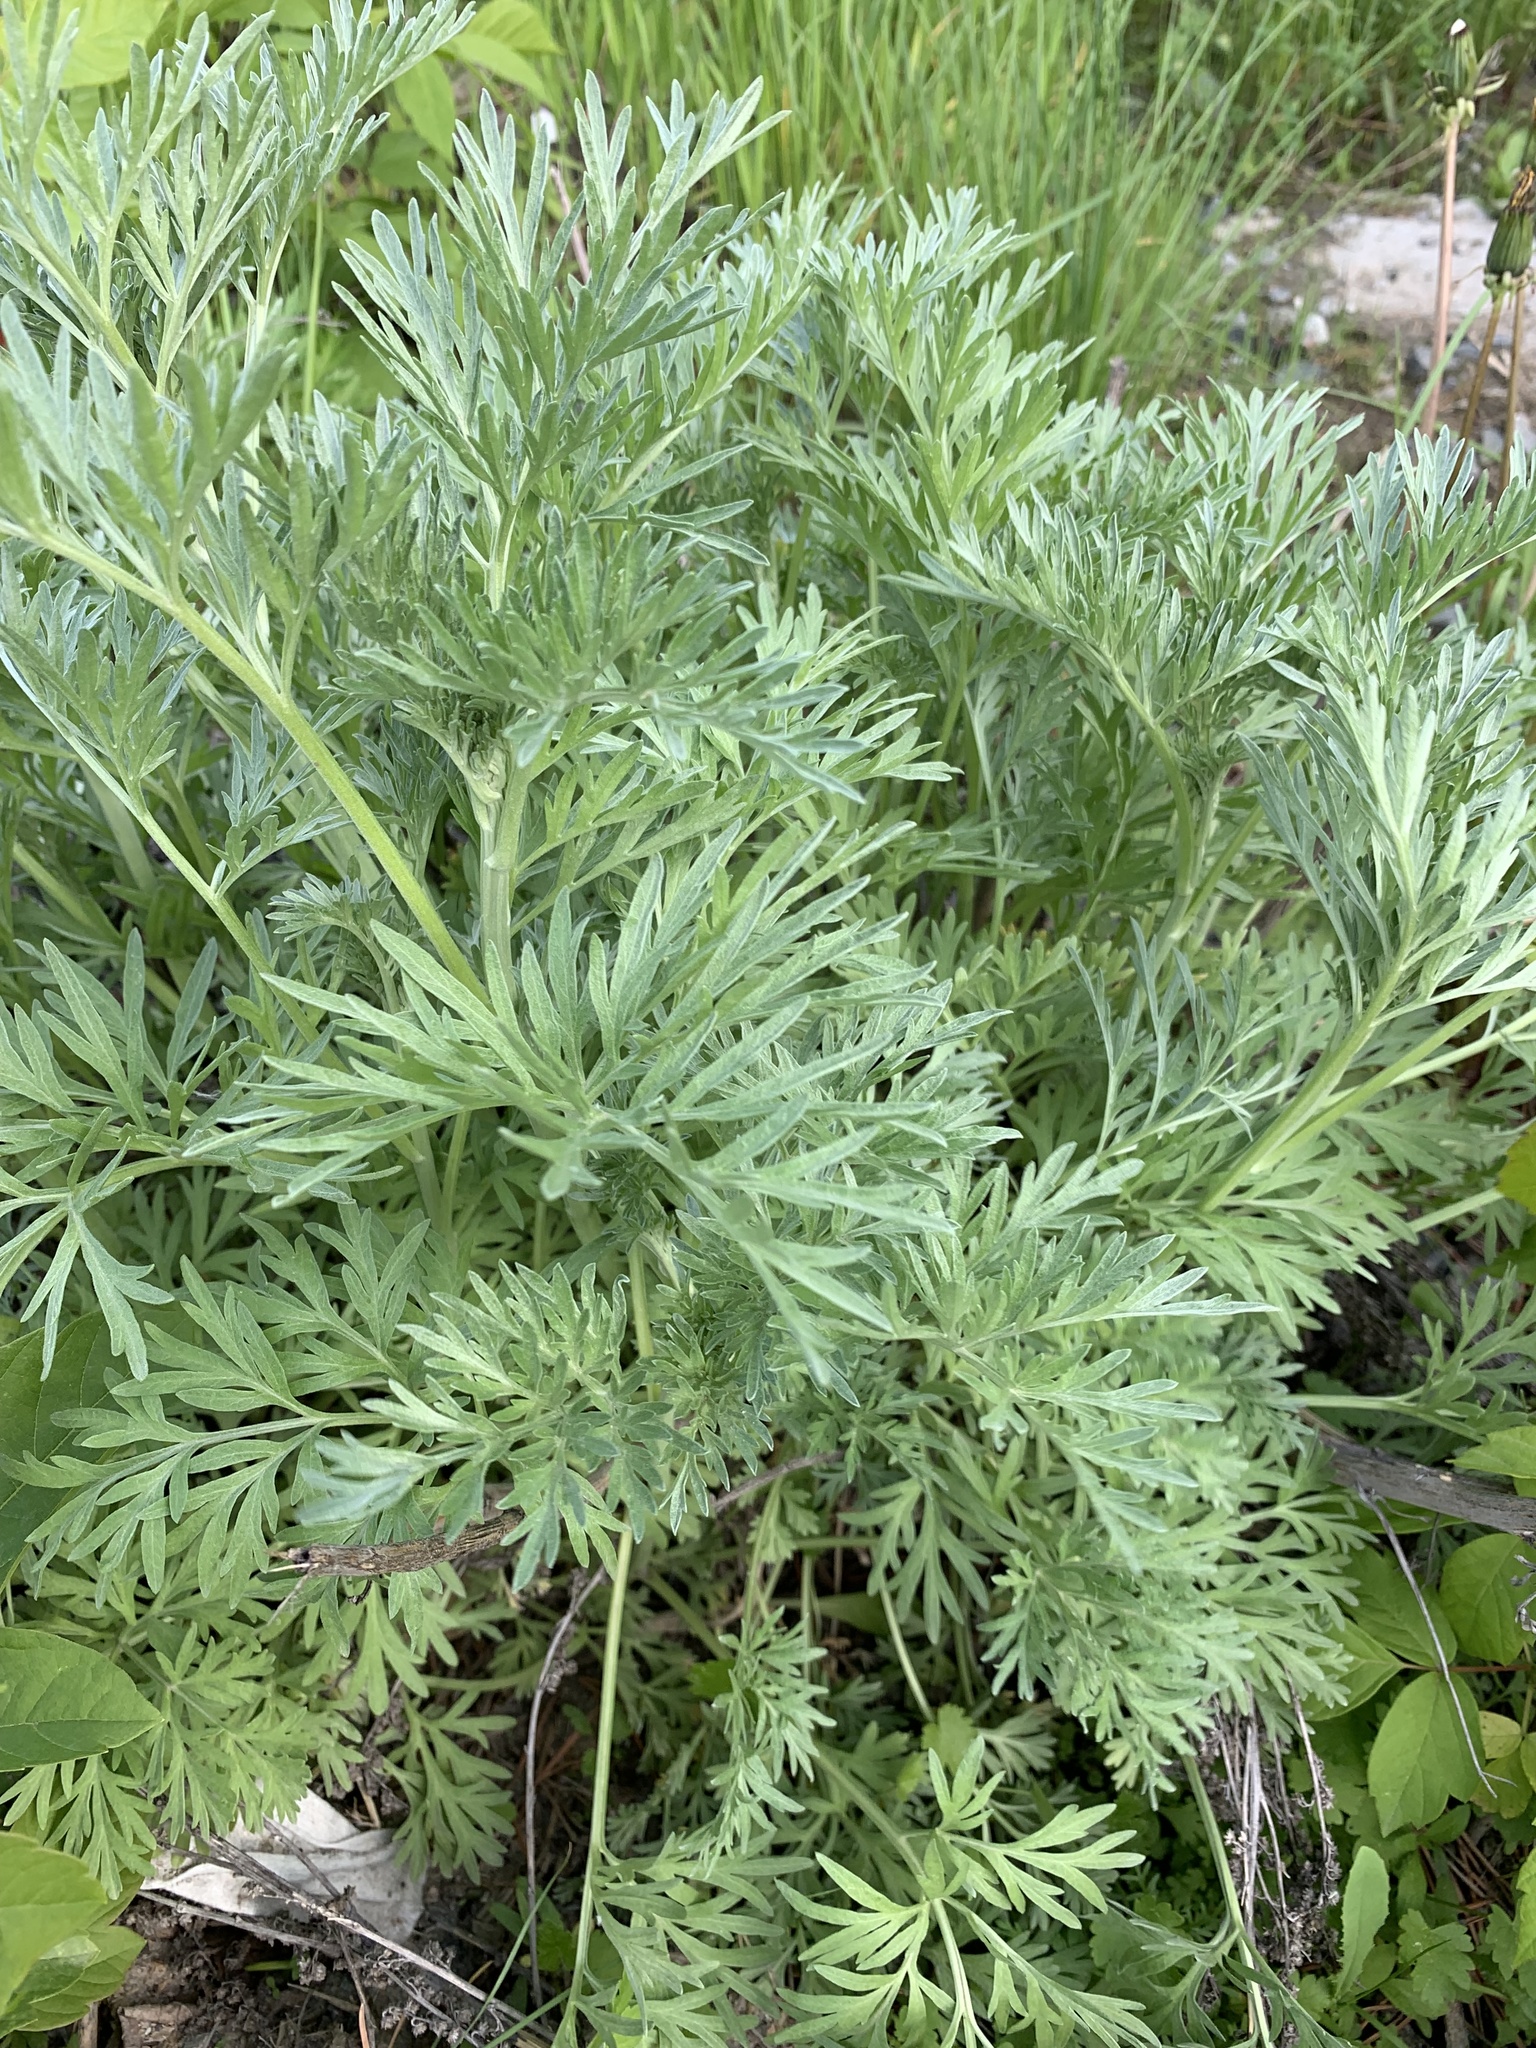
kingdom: Plantae
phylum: Tracheophyta
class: Magnoliopsida
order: Asterales
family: Asteraceae
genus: Artemisia
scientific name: Artemisia absinthium
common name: Wormwood
